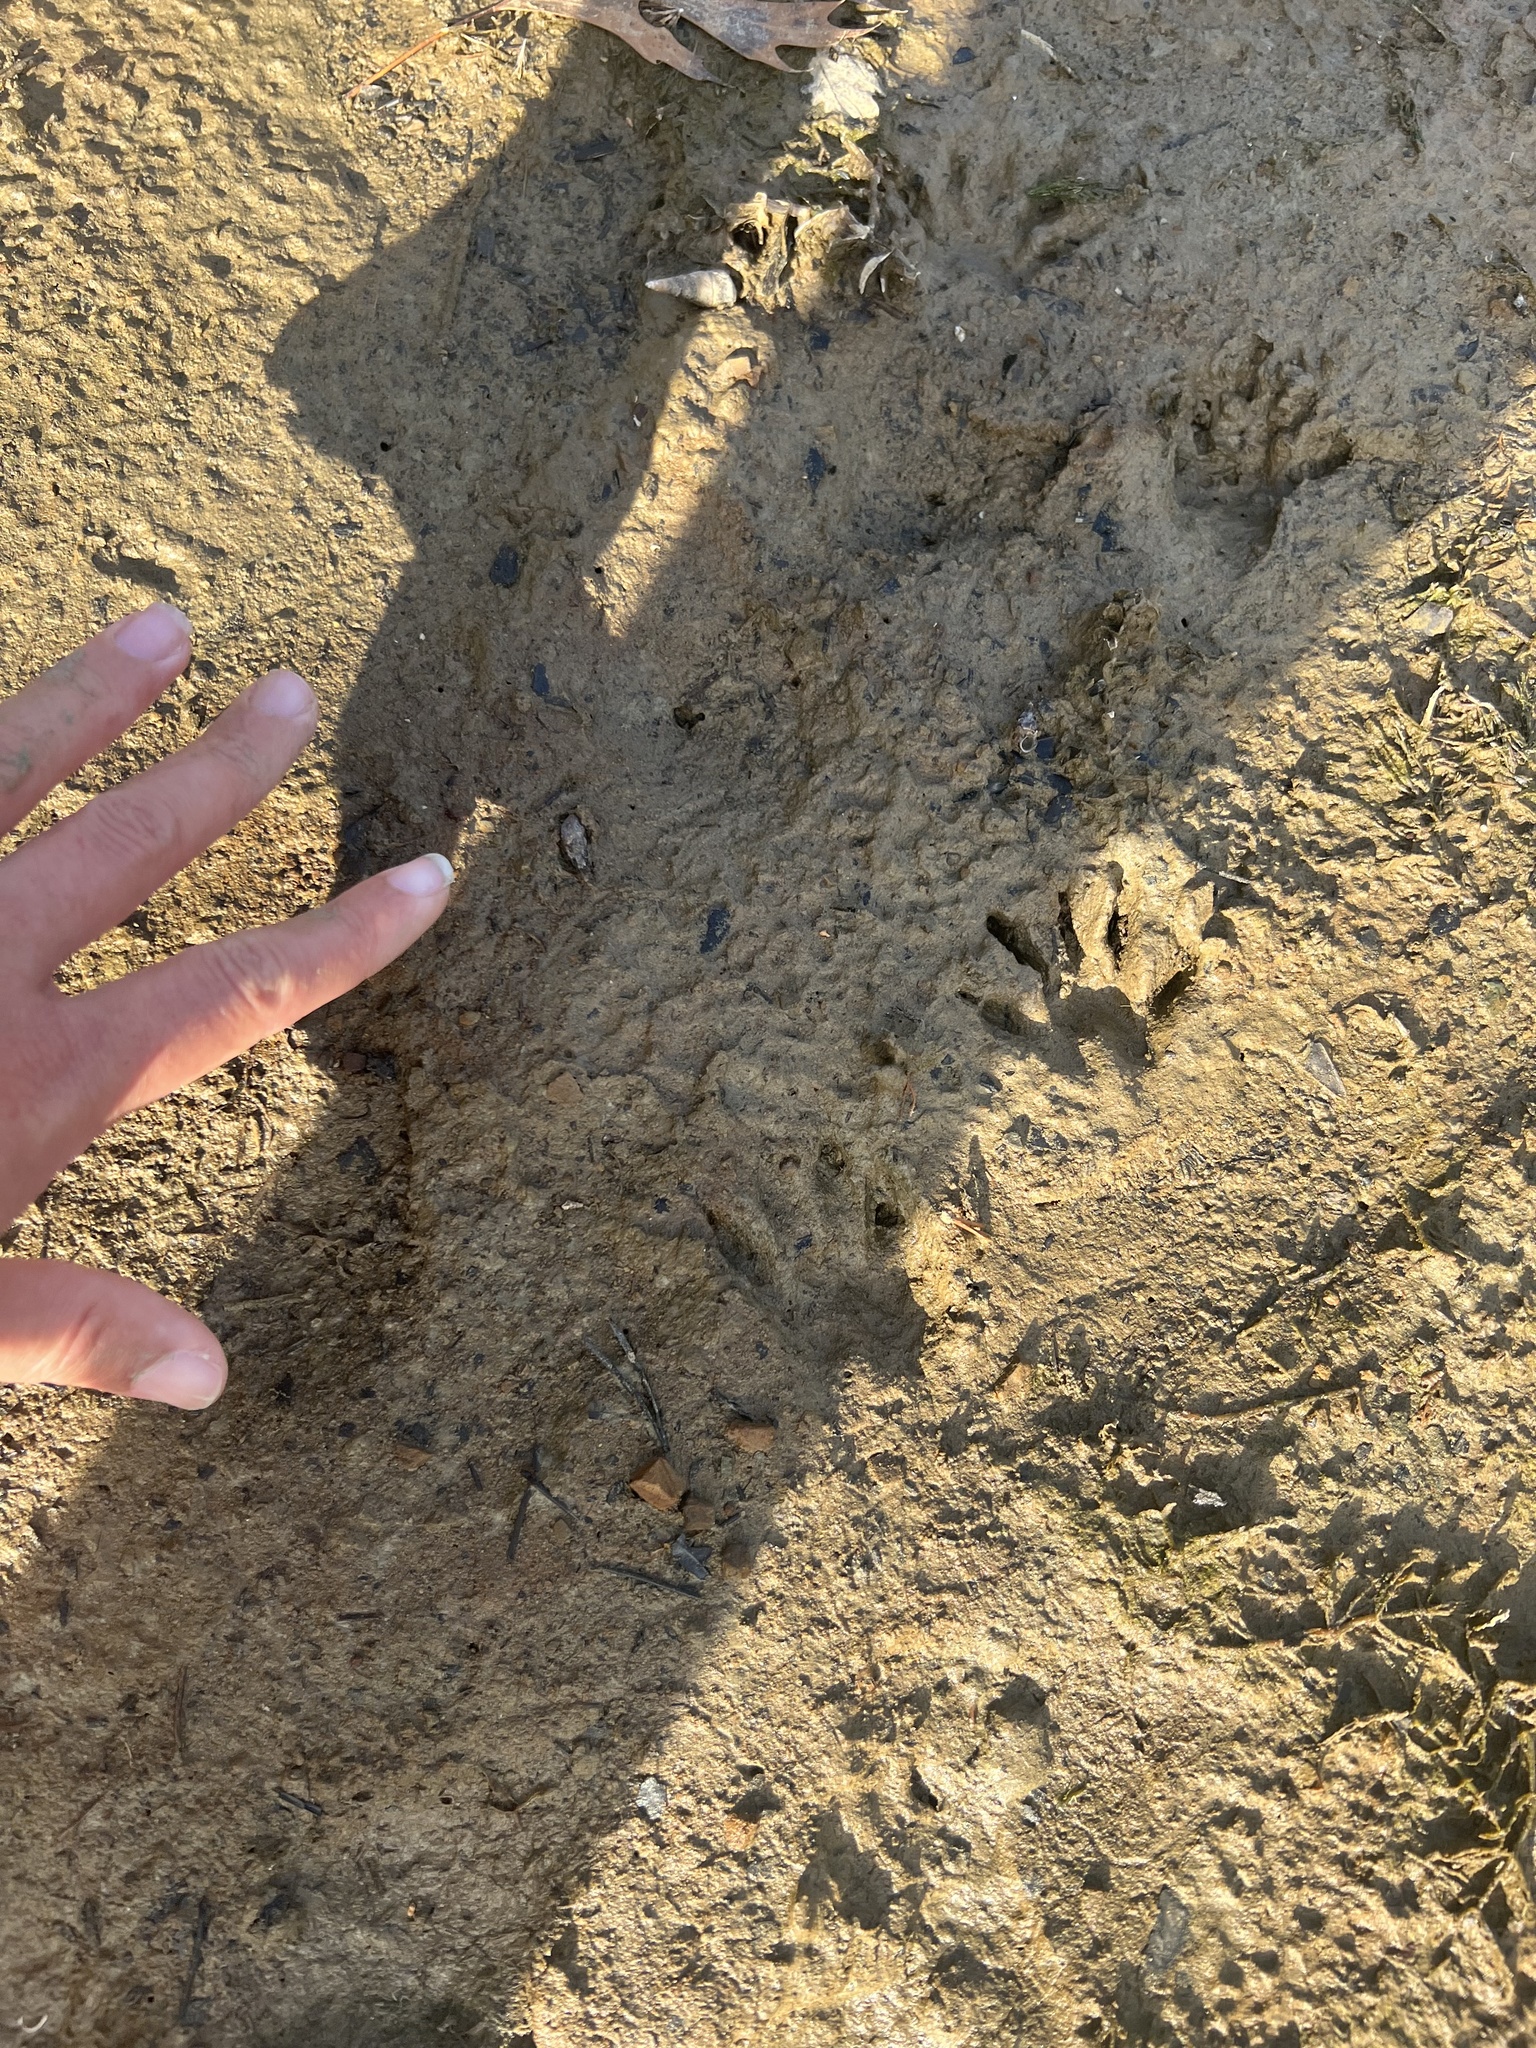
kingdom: Animalia
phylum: Chordata
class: Mammalia
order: Carnivora
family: Procyonidae
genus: Procyon
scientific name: Procyon lotor
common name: Raccoon
